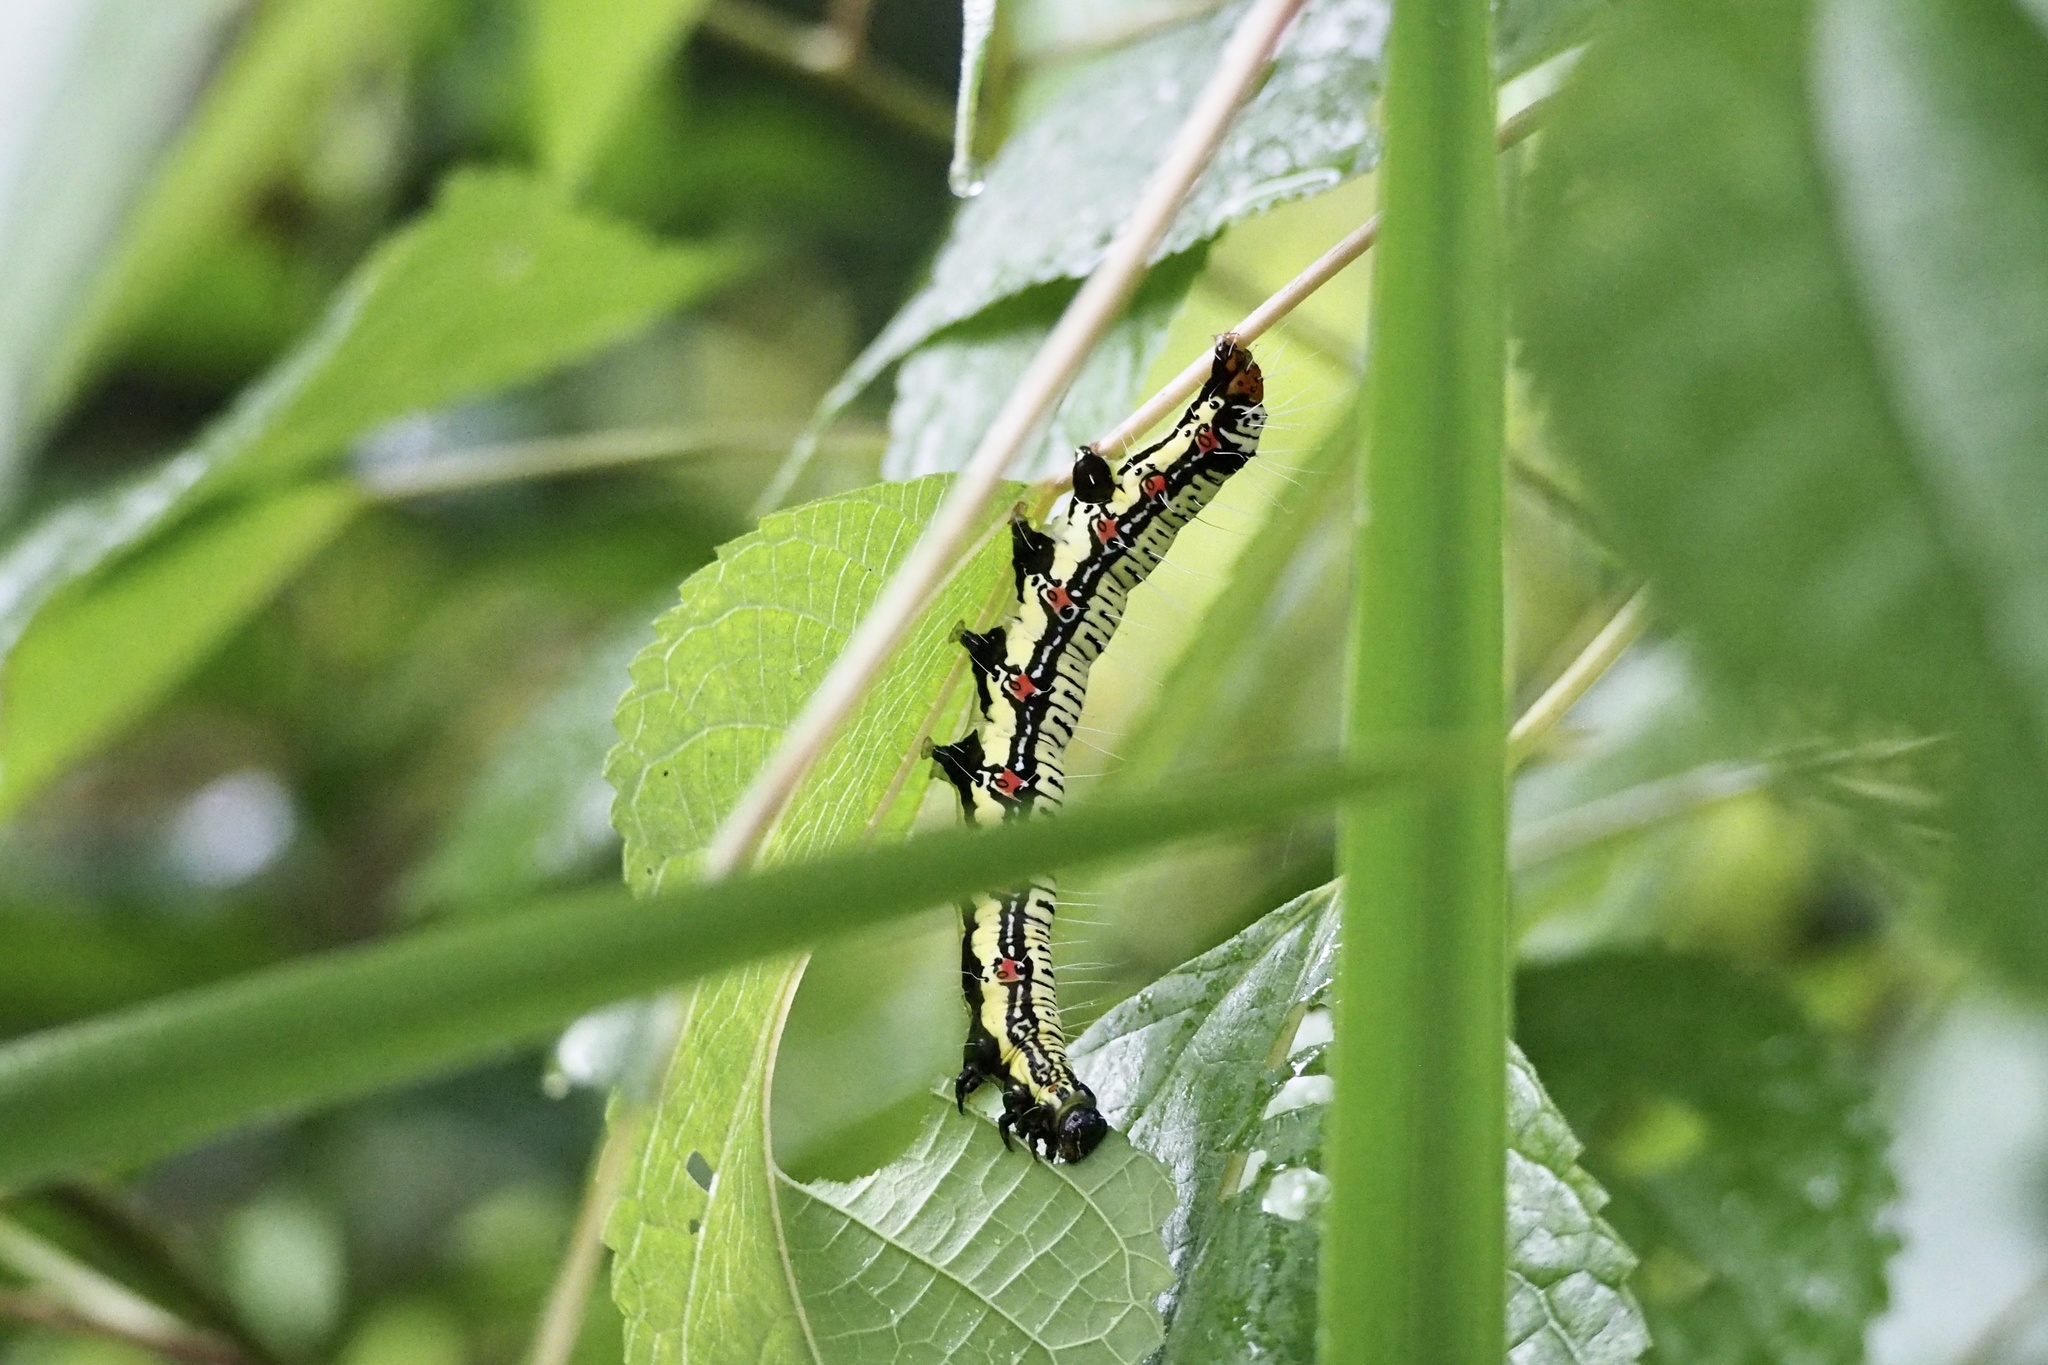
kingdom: Animalia
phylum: Arthropoda
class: Insecta
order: Lepidoptera
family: Erebidae
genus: Arcte
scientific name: Arcte coerula
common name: Ramie moth
